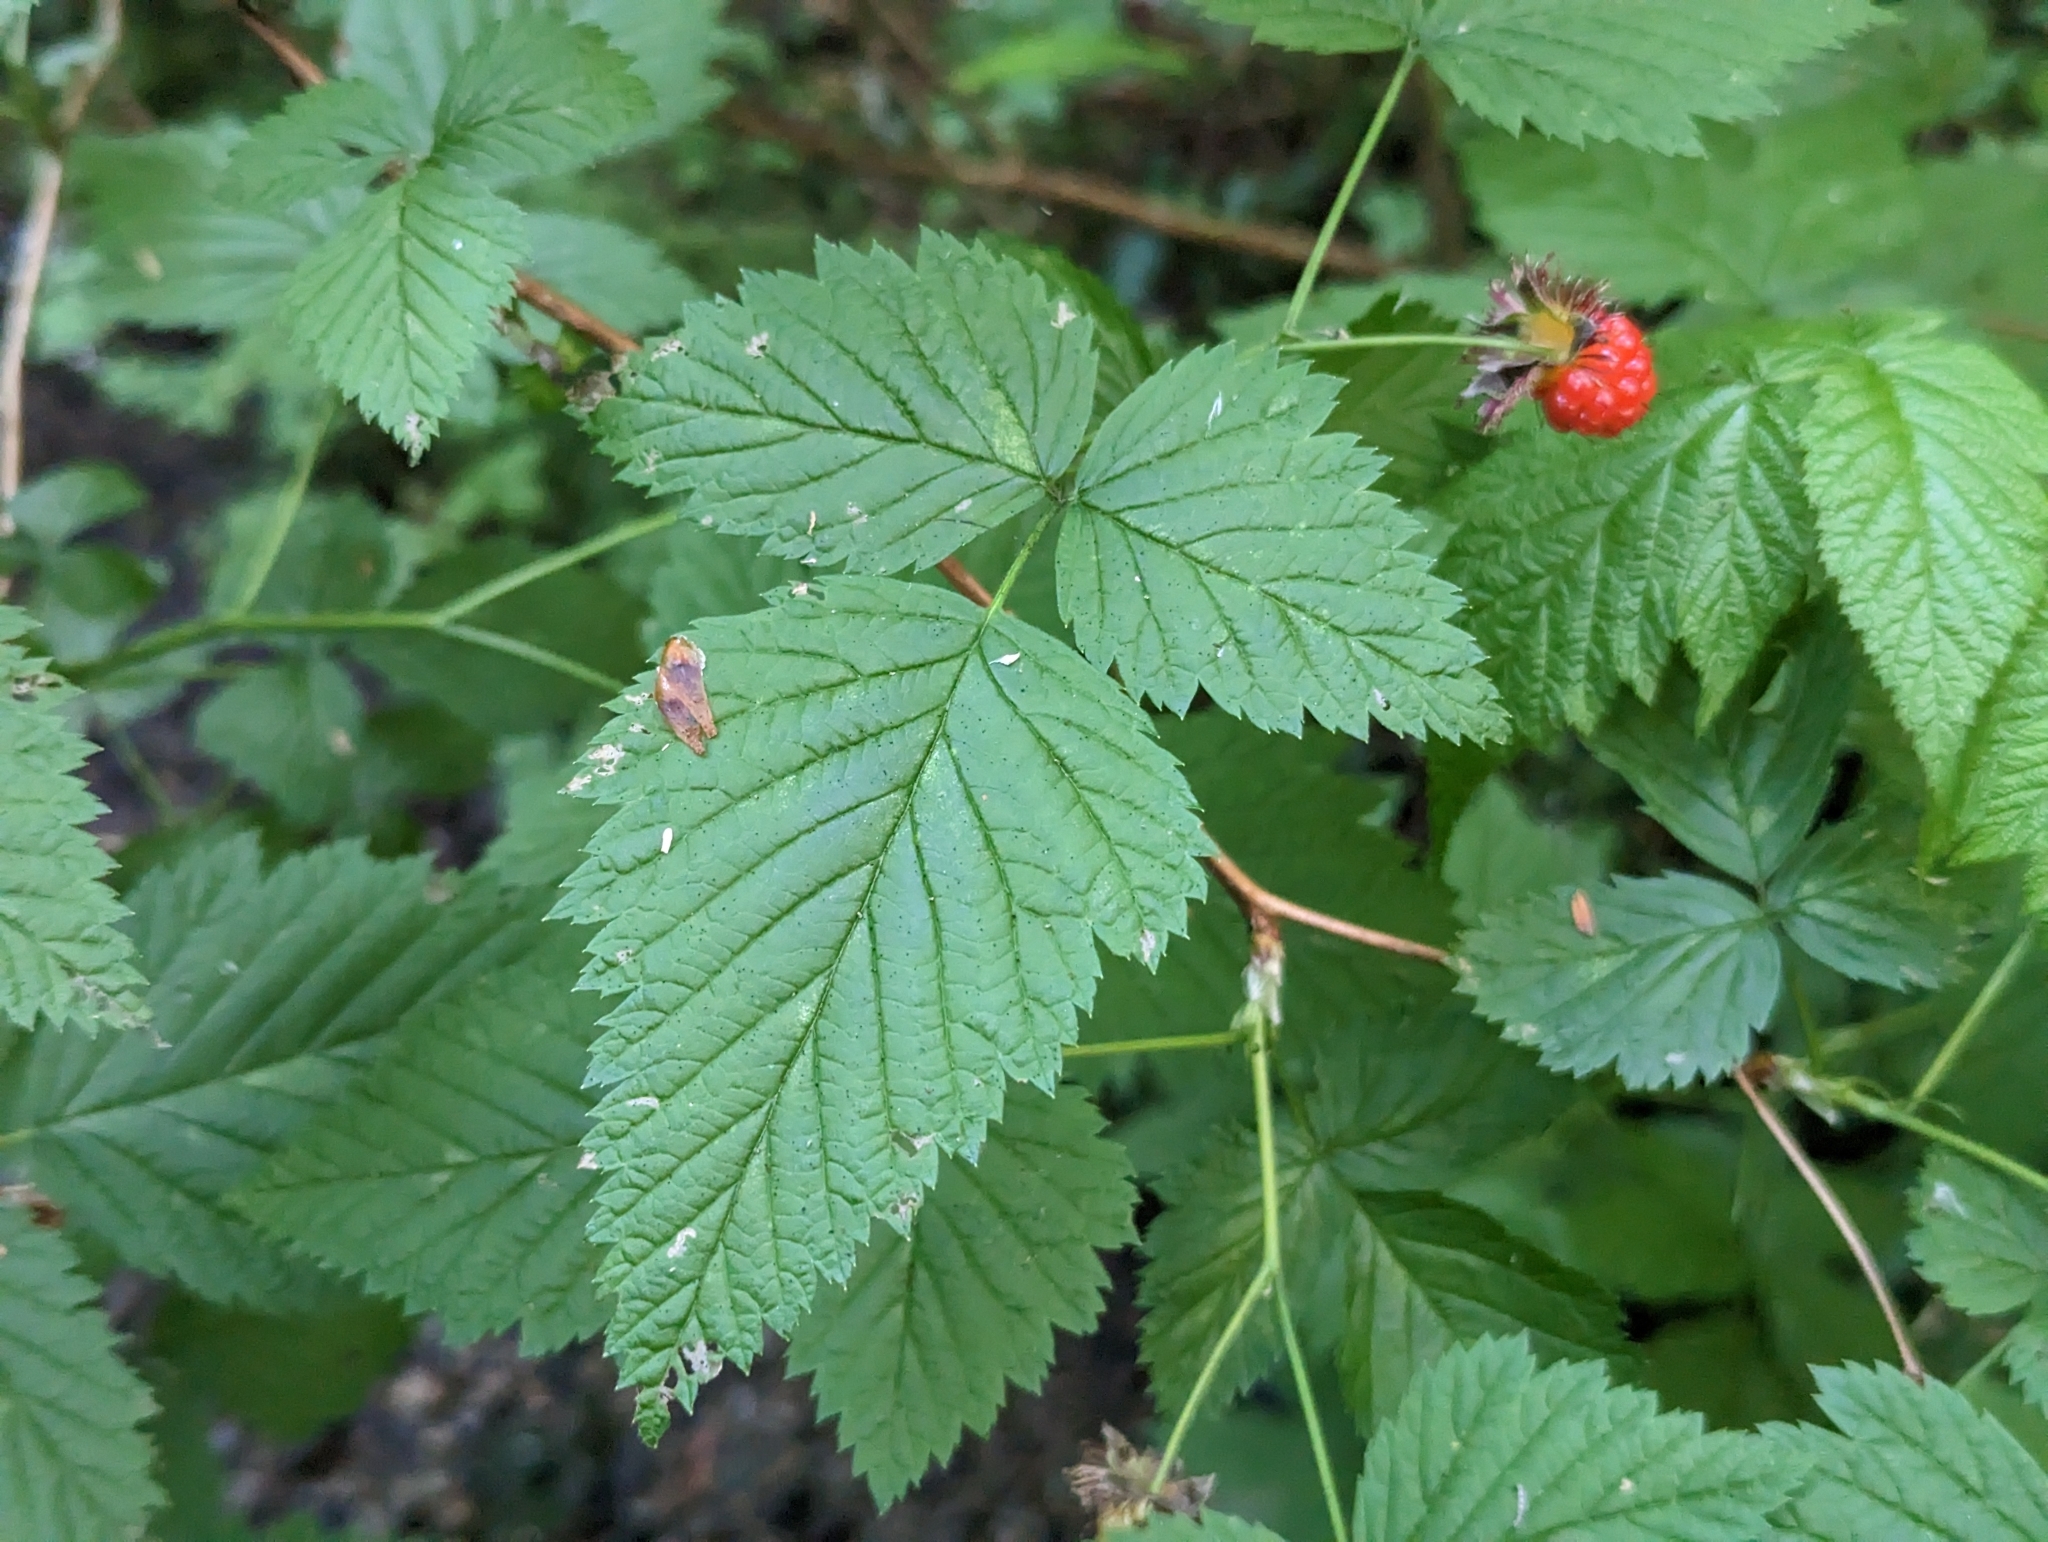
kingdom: Plantae
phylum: Tracheophyta
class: Magnoliopsida
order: Rosales
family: Rosaceae
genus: Rubus
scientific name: Rubus spectabilis
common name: Salmonberry
